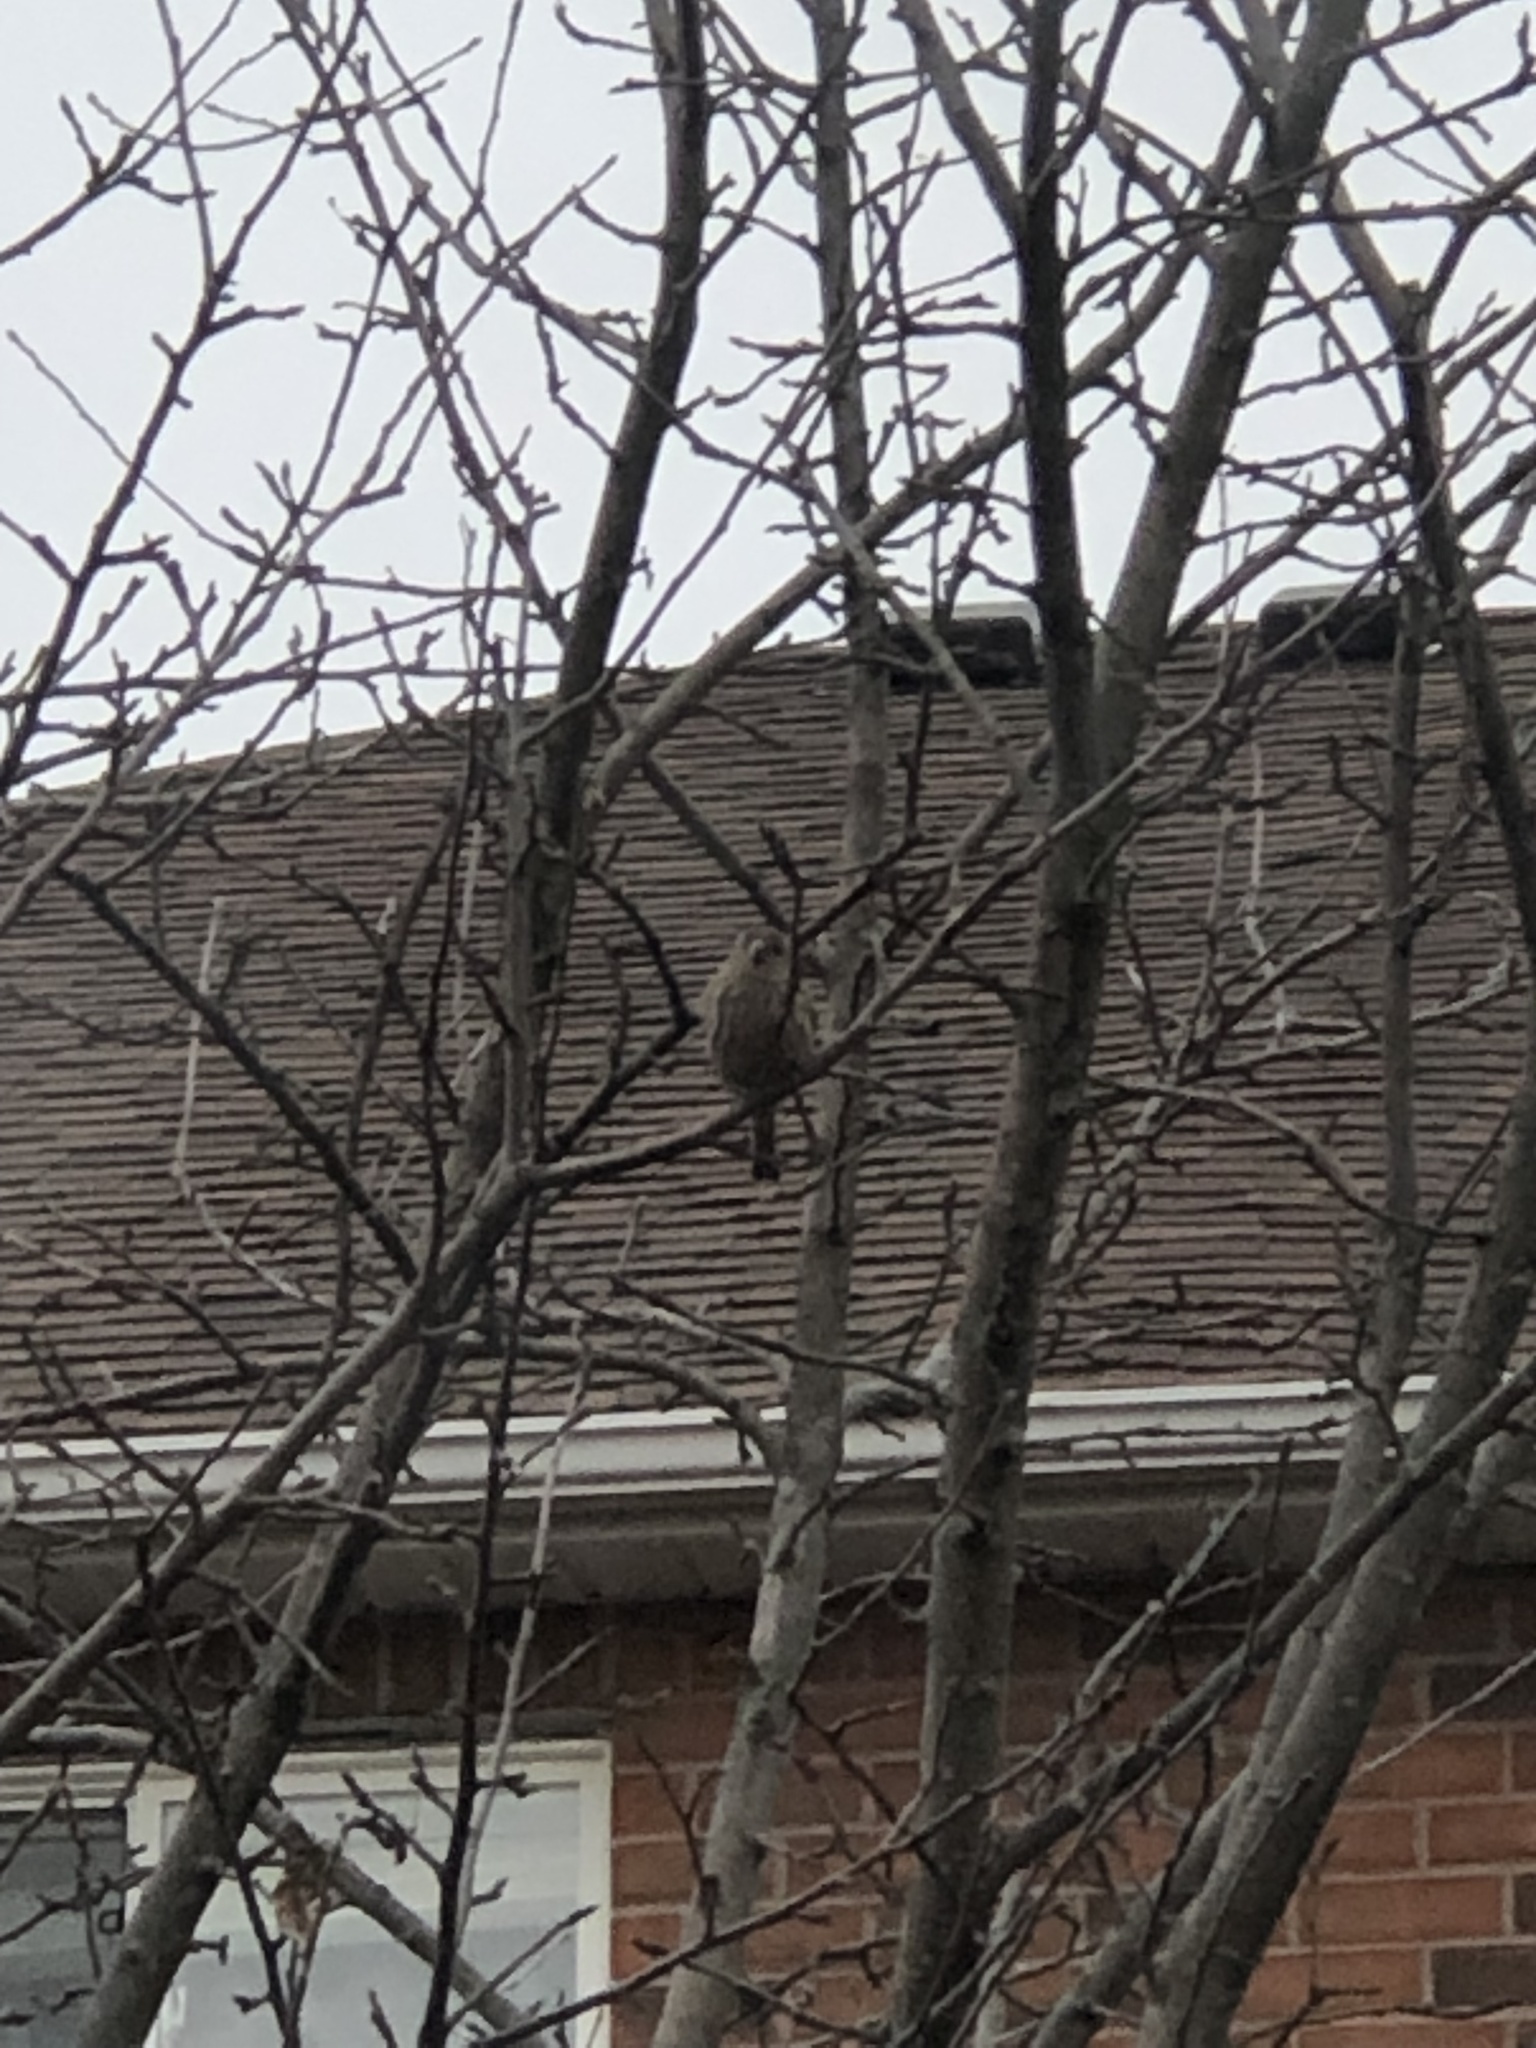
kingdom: Animalia
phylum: Chordata
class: Aves
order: Passeriformes
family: Fringillidae
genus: Haemorhous
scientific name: Haemorhous mexicanus
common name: House finch
